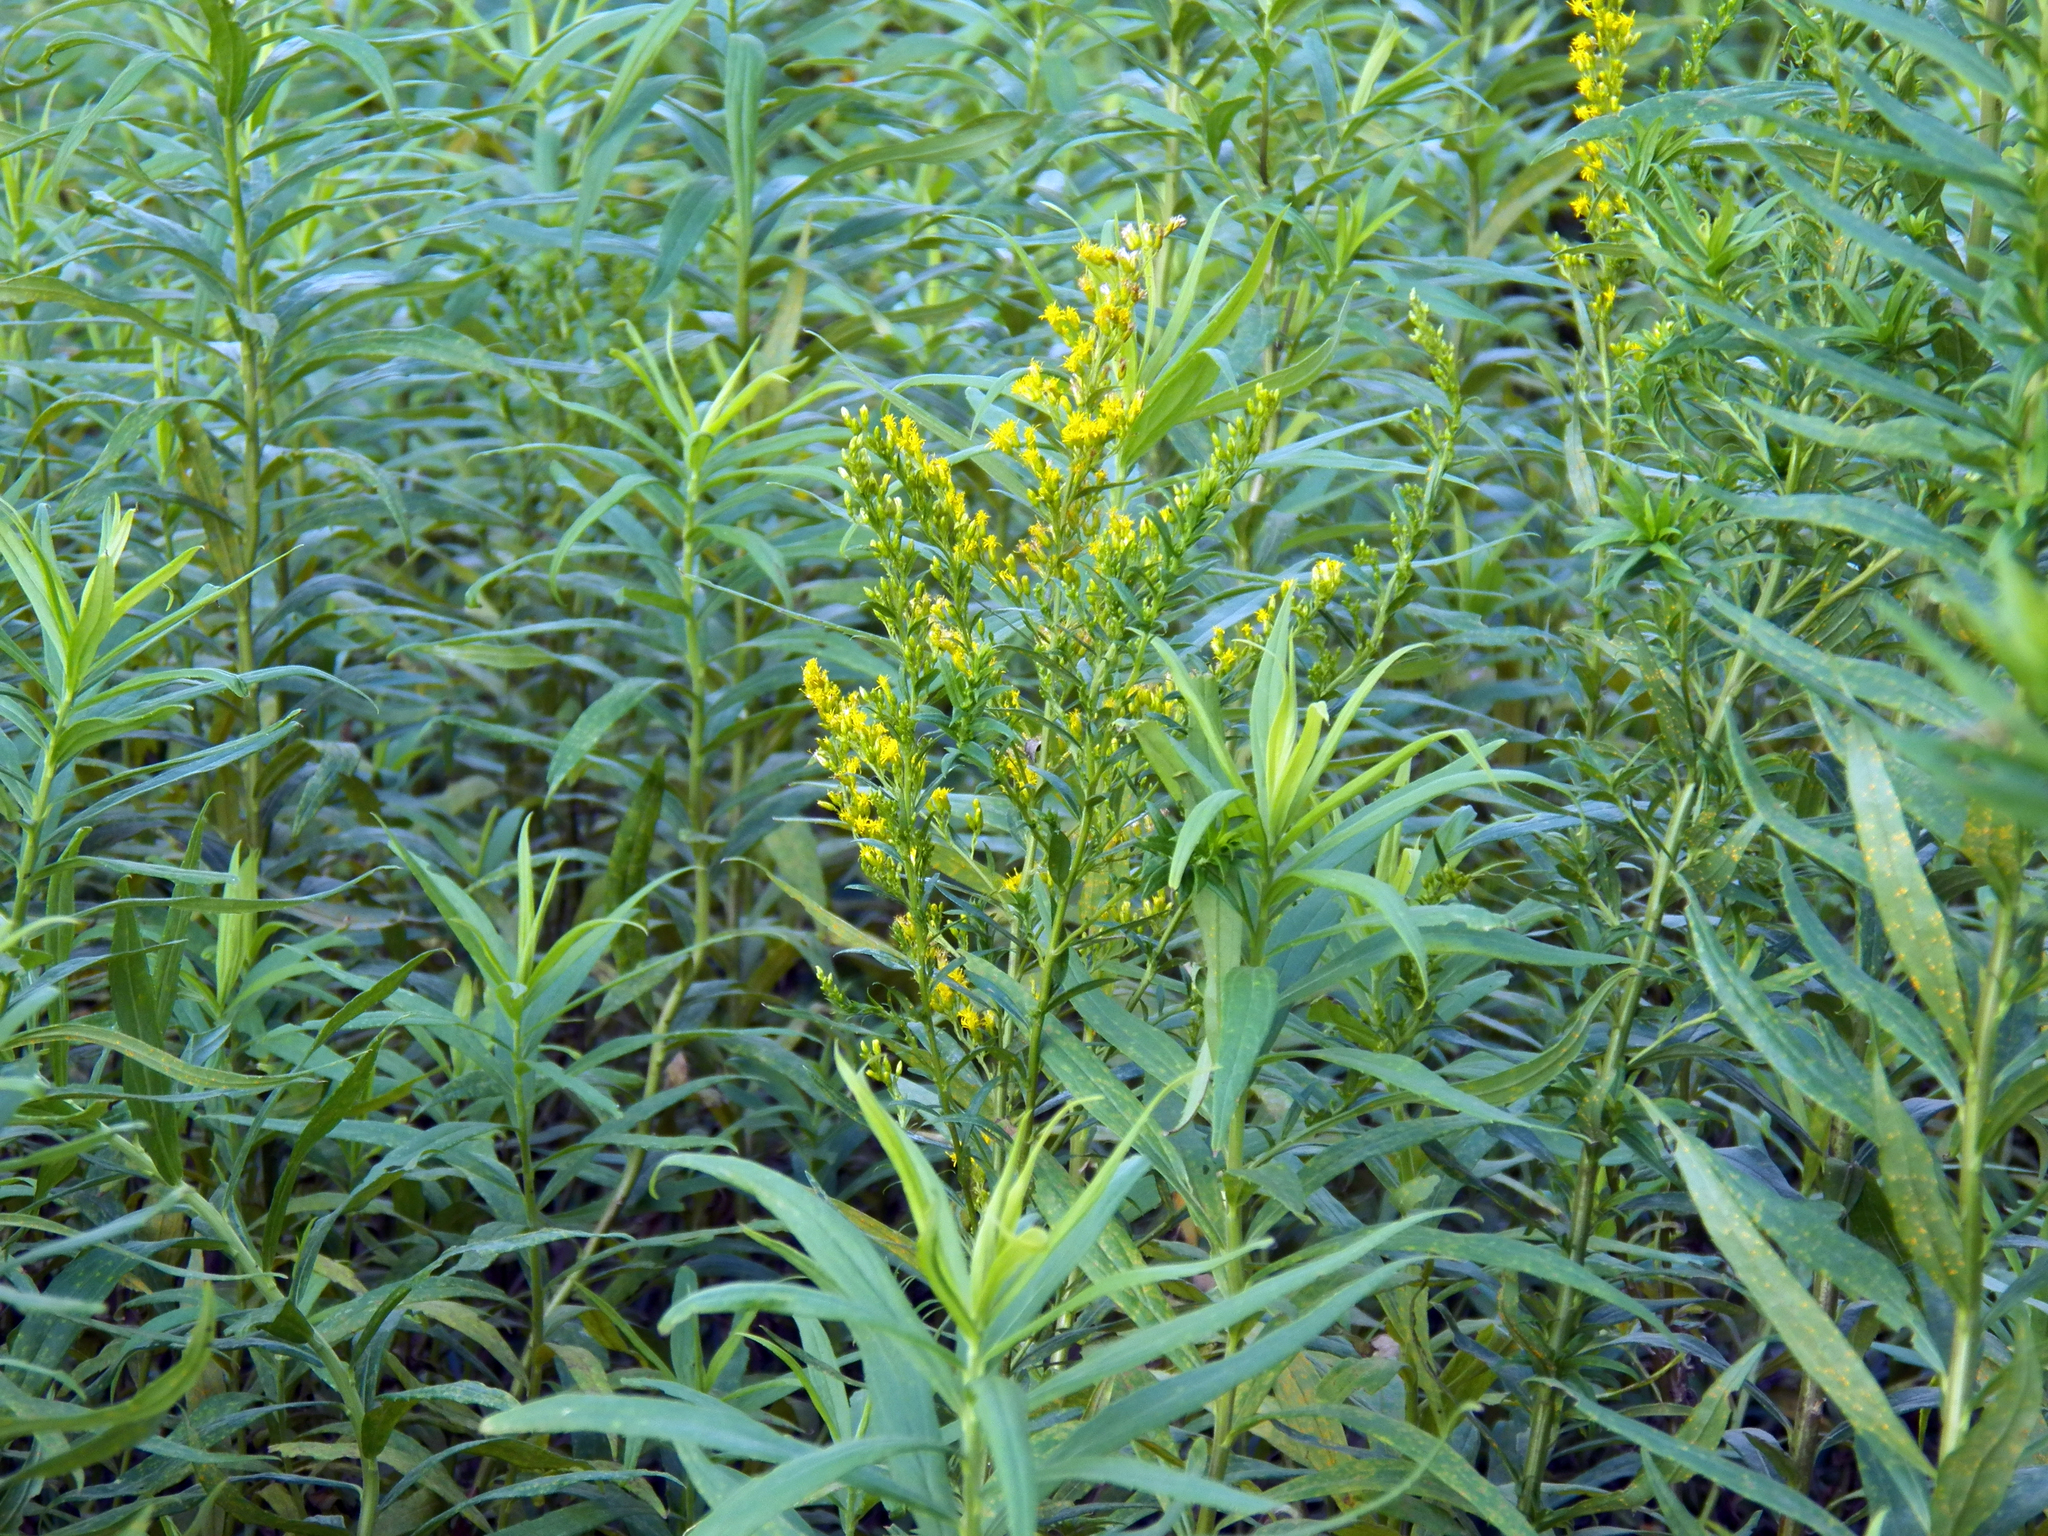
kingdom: Plantae
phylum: Tracheophyta
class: Magnoliopsida
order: Asterales
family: Asteraceae
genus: Solidago
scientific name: Solidago altissima
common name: Late goldenrod
